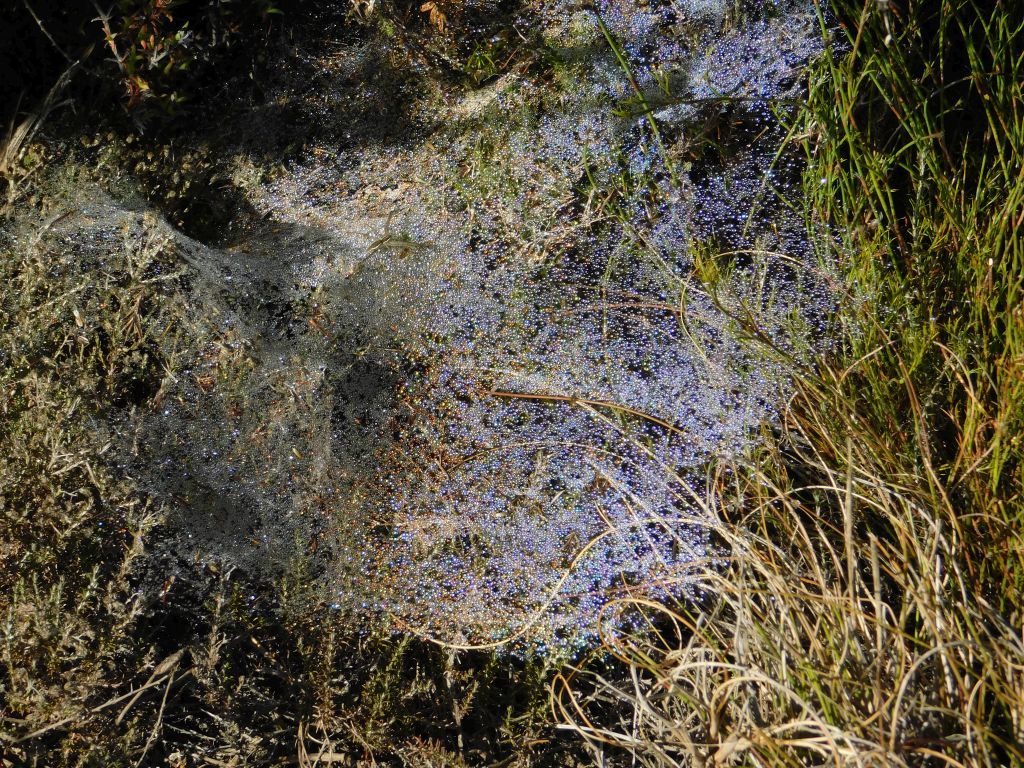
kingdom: Animalia
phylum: Arthropoda
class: Arachnida
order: Araneae
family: Pisauridae
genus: Euprosthenopsis
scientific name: Euprosthenopsis pulchella
